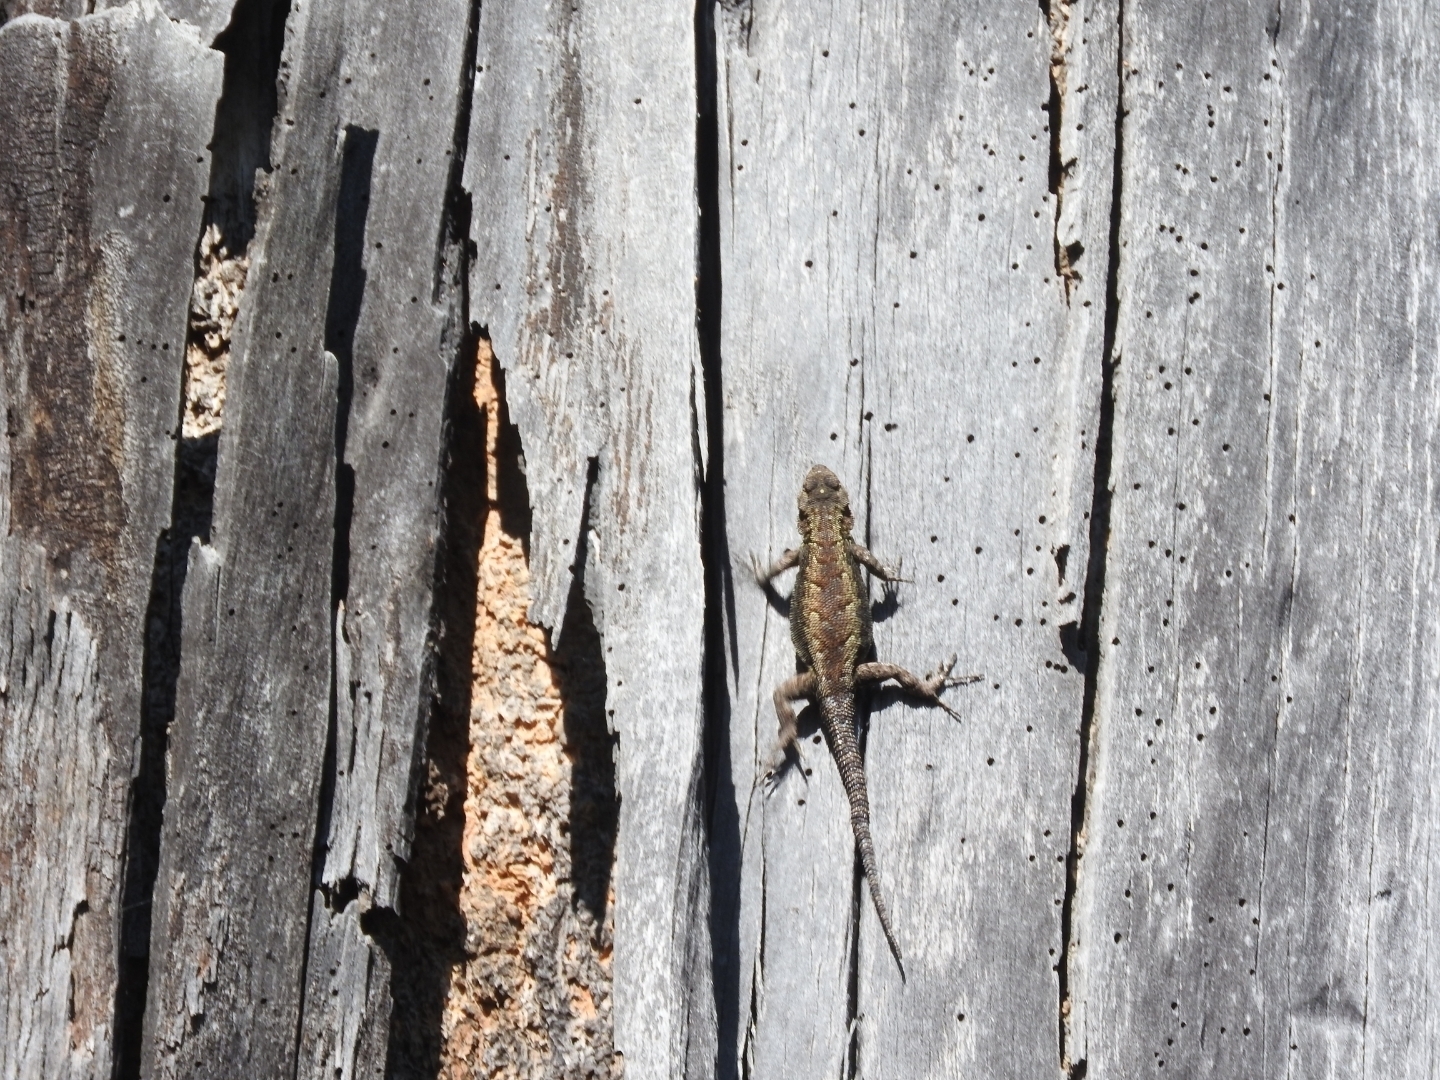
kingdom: Animalia
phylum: Chordata
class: Squamata
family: Phrynosomatidae
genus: Sceloporus
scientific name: Sceloporus scalaris
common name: Brown’s bunchgrass lizard [brownorum]
